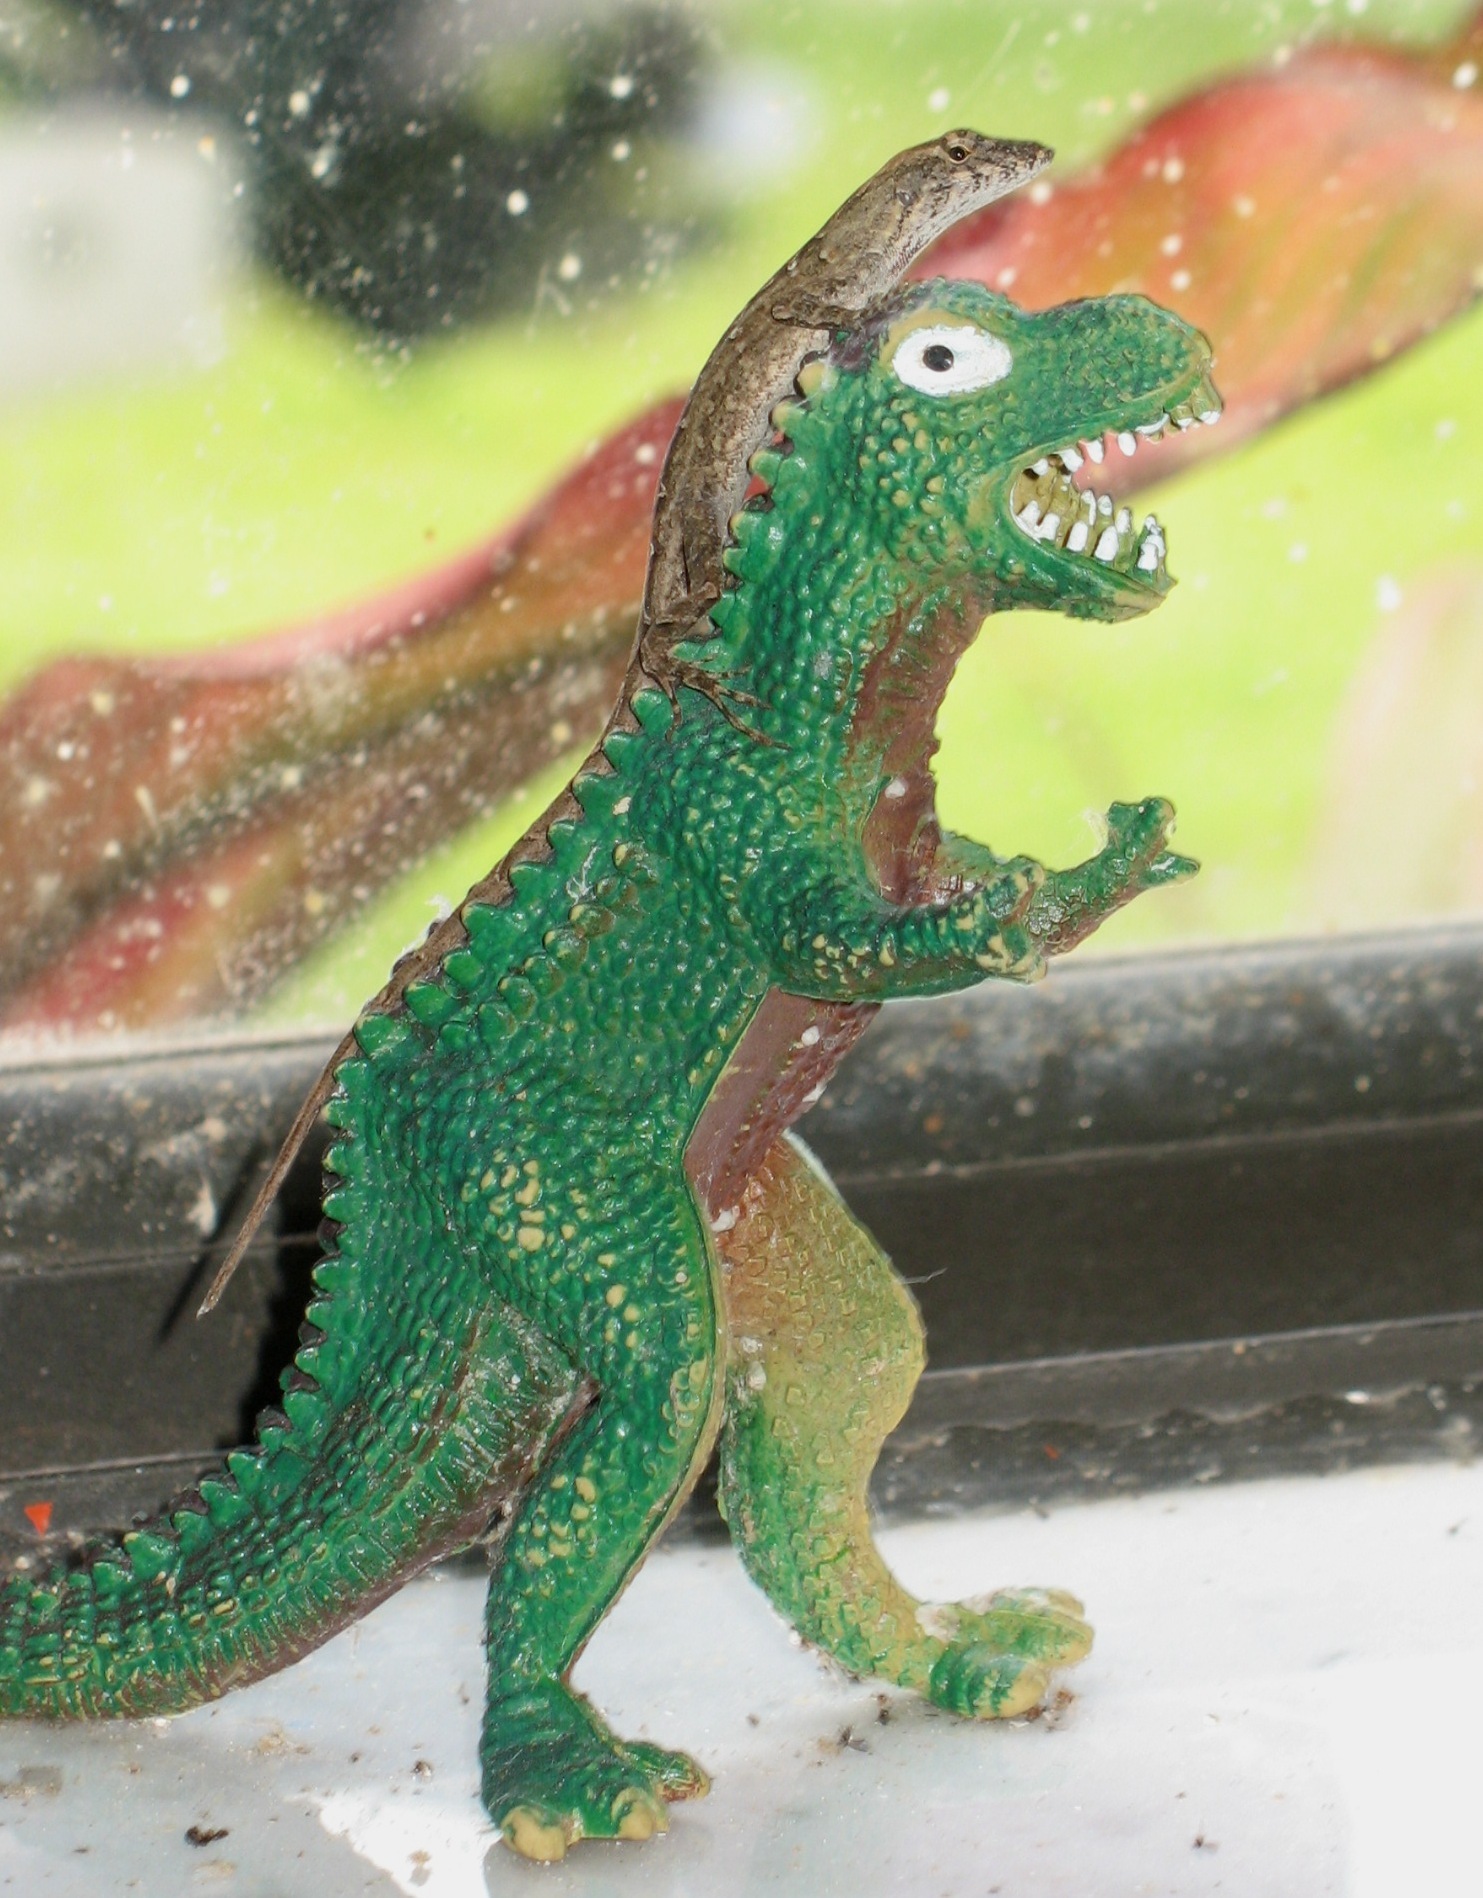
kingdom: Animalia
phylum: Chordata
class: Squamata
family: Dactyloidae
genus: Anolis
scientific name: Anolis sagrei
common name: Brown anole
